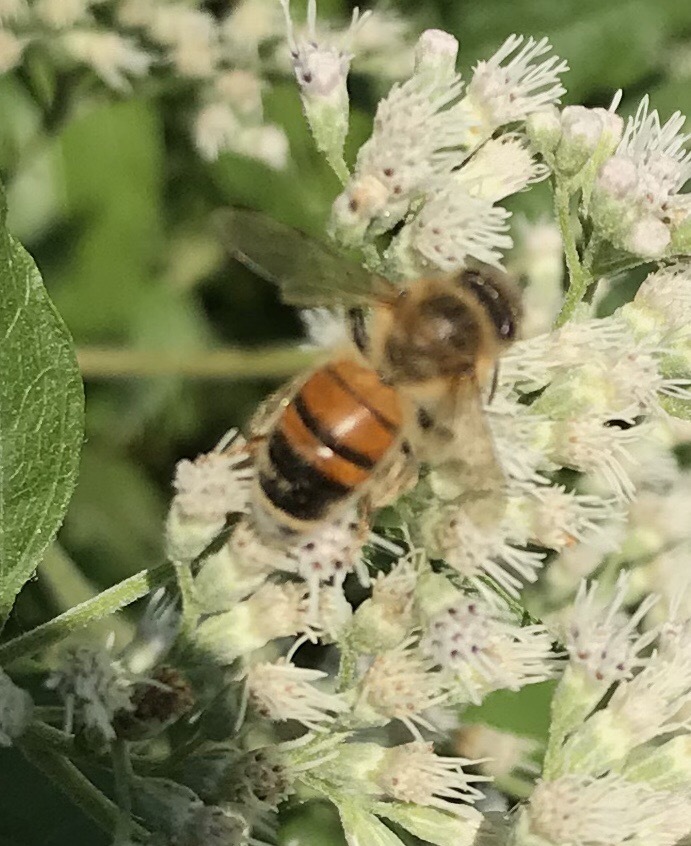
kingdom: Animalia
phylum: Arthropoda
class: Insecta
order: Hymenoptera
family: Apidae
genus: Apis
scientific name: Apis mellifera
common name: Honey bee
